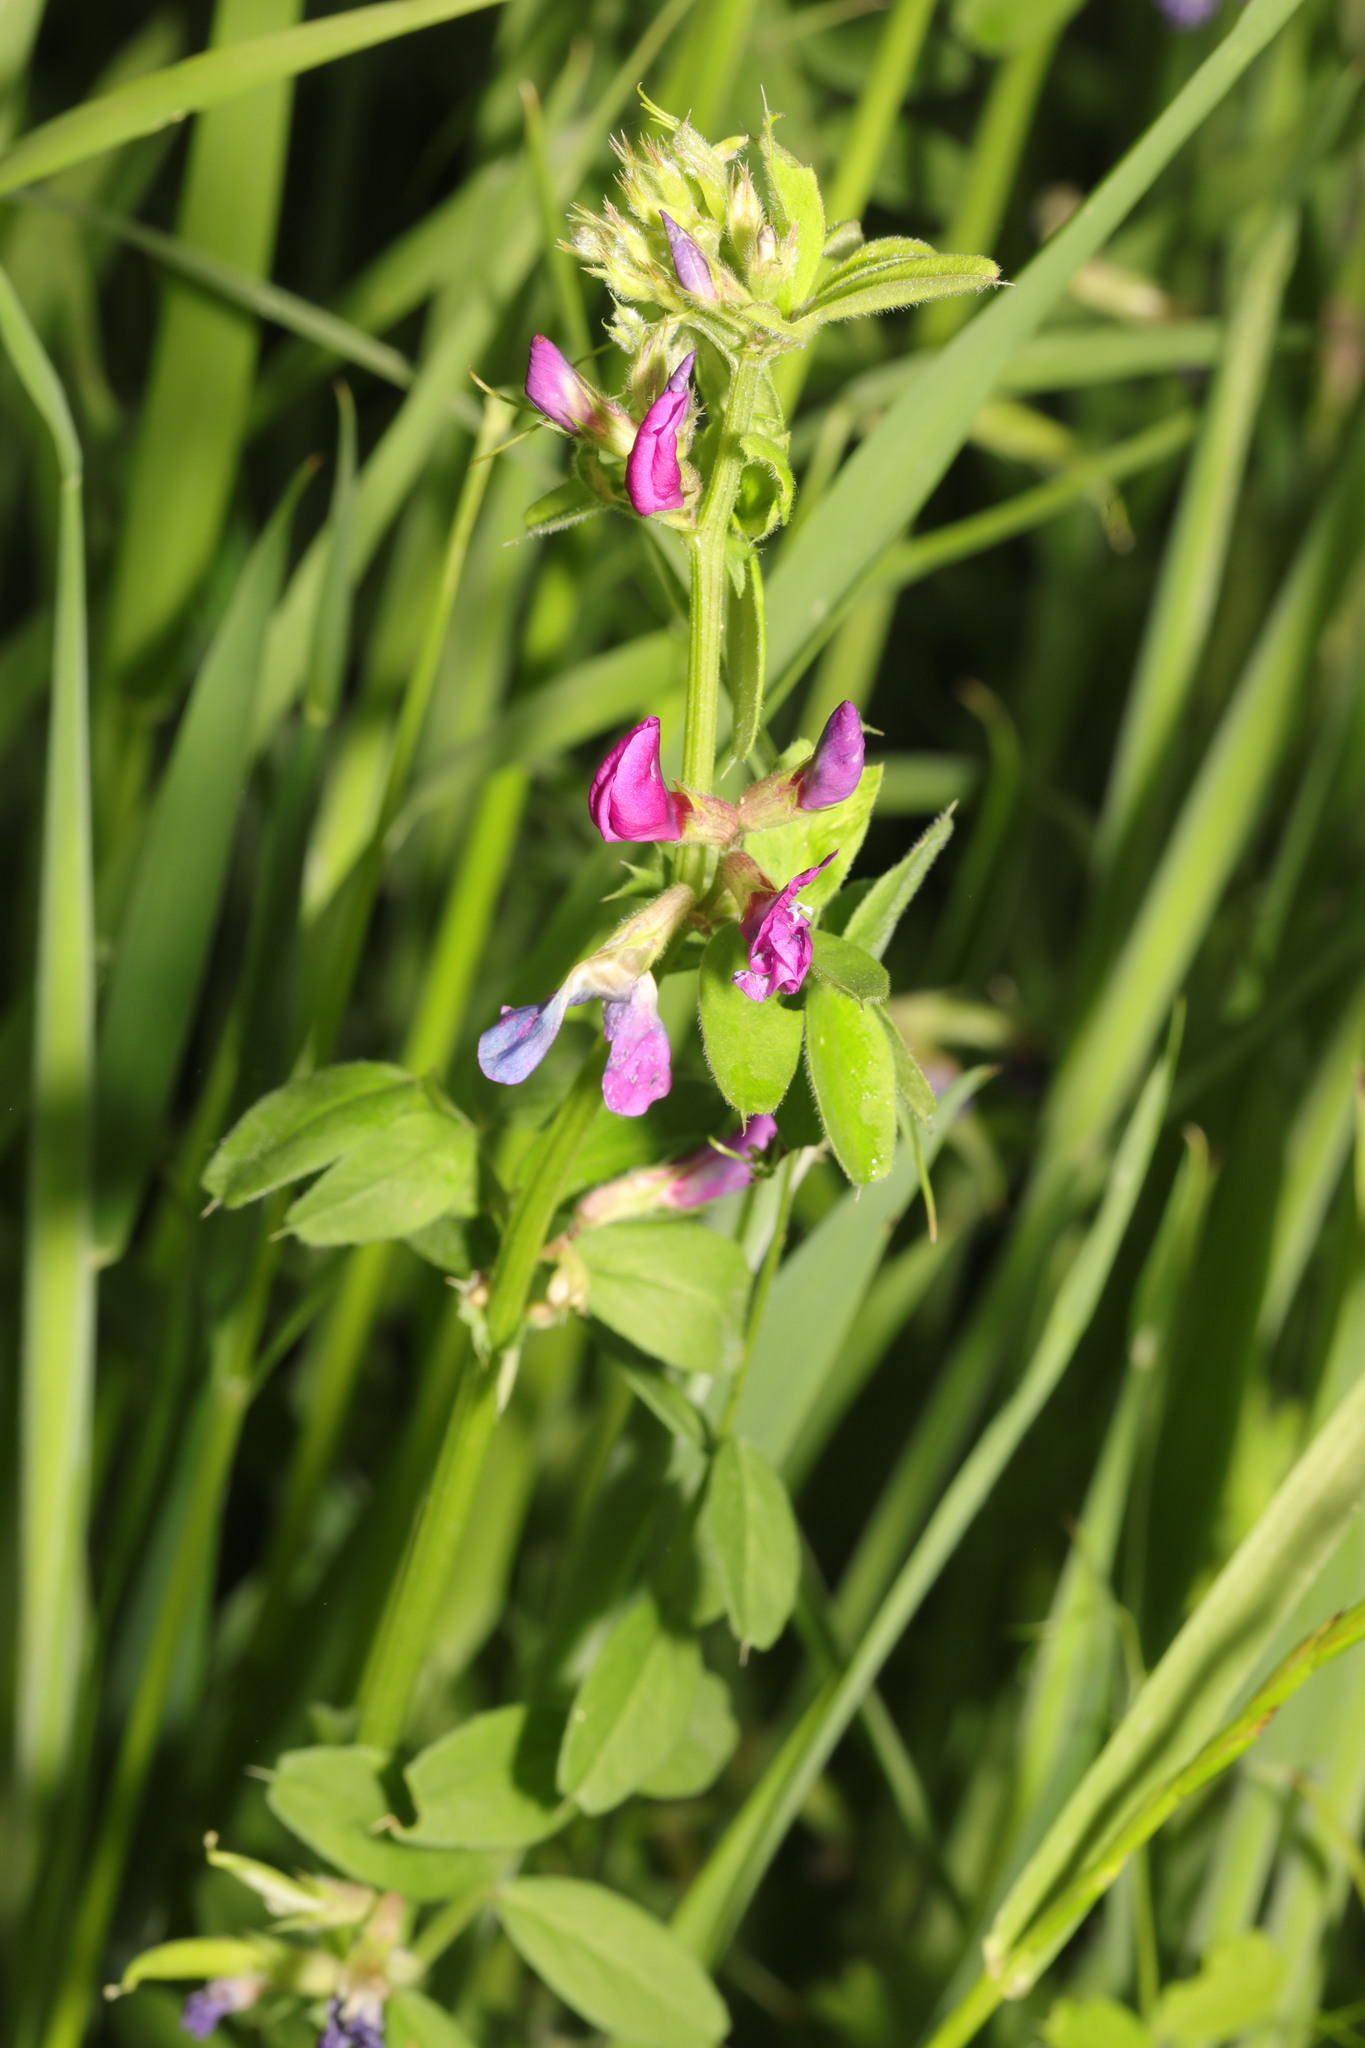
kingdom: Plantae
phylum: Tracheophyta
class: Magnoliopsida
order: Fabales
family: Fabaceae
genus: Vicia
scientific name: Vicia sativa
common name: Garden vetch
